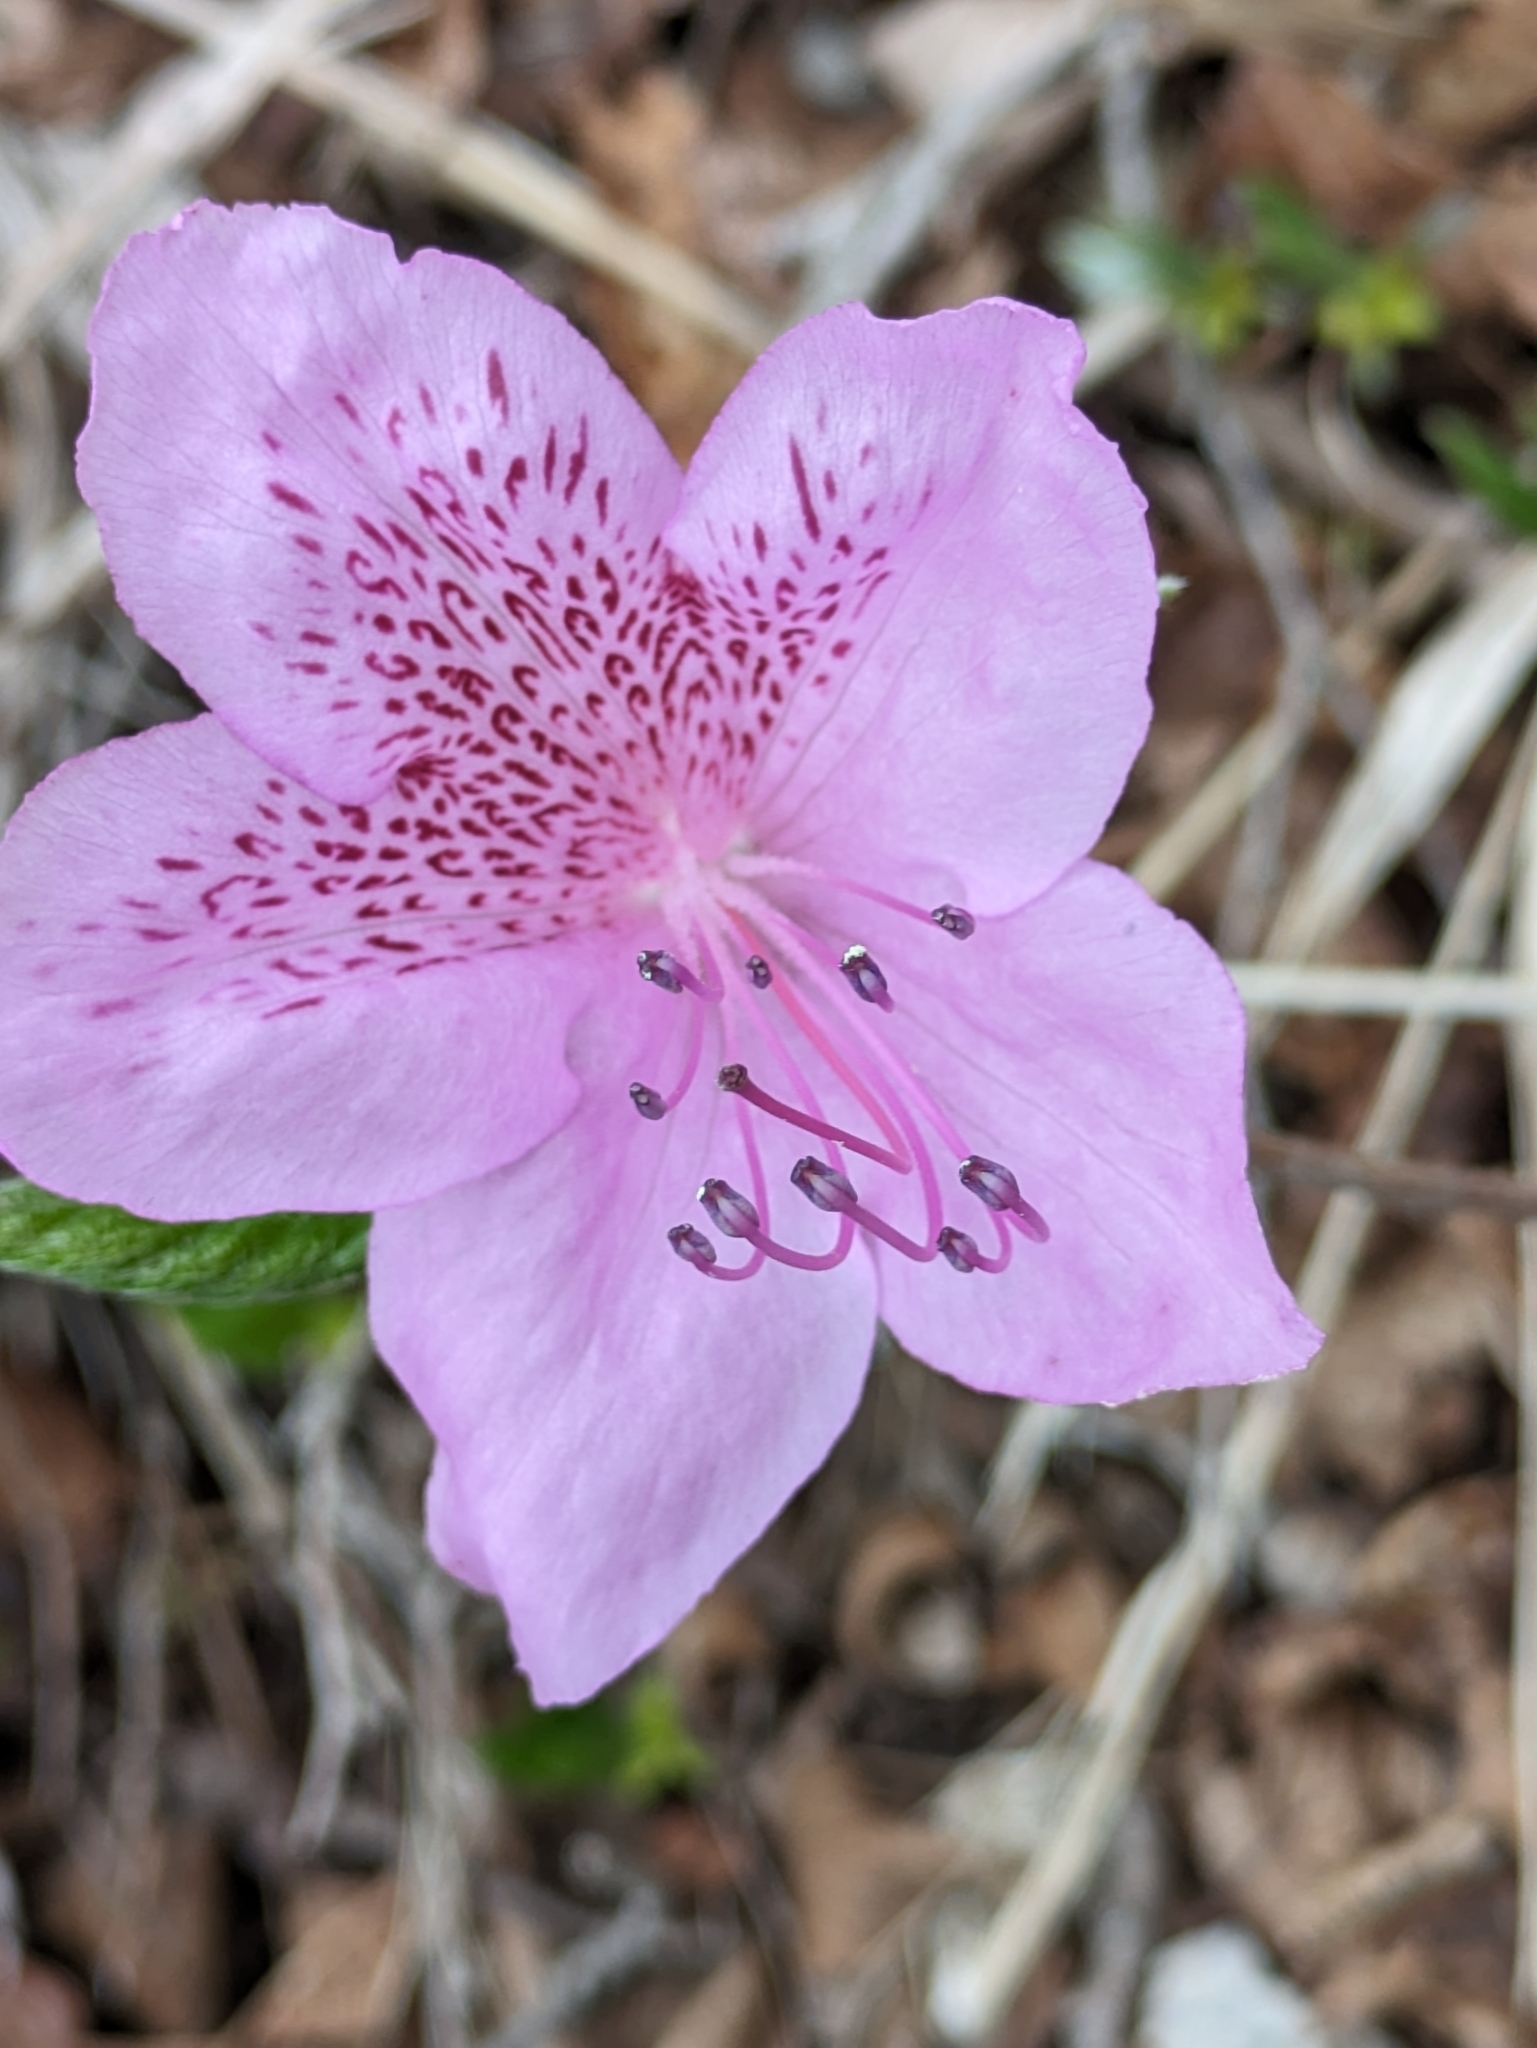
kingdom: Plantae
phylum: Tracheophyta
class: Magnoliopsida
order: Ericales
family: Ericaceae
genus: Rhododendron
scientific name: Rhododendron yedoense
